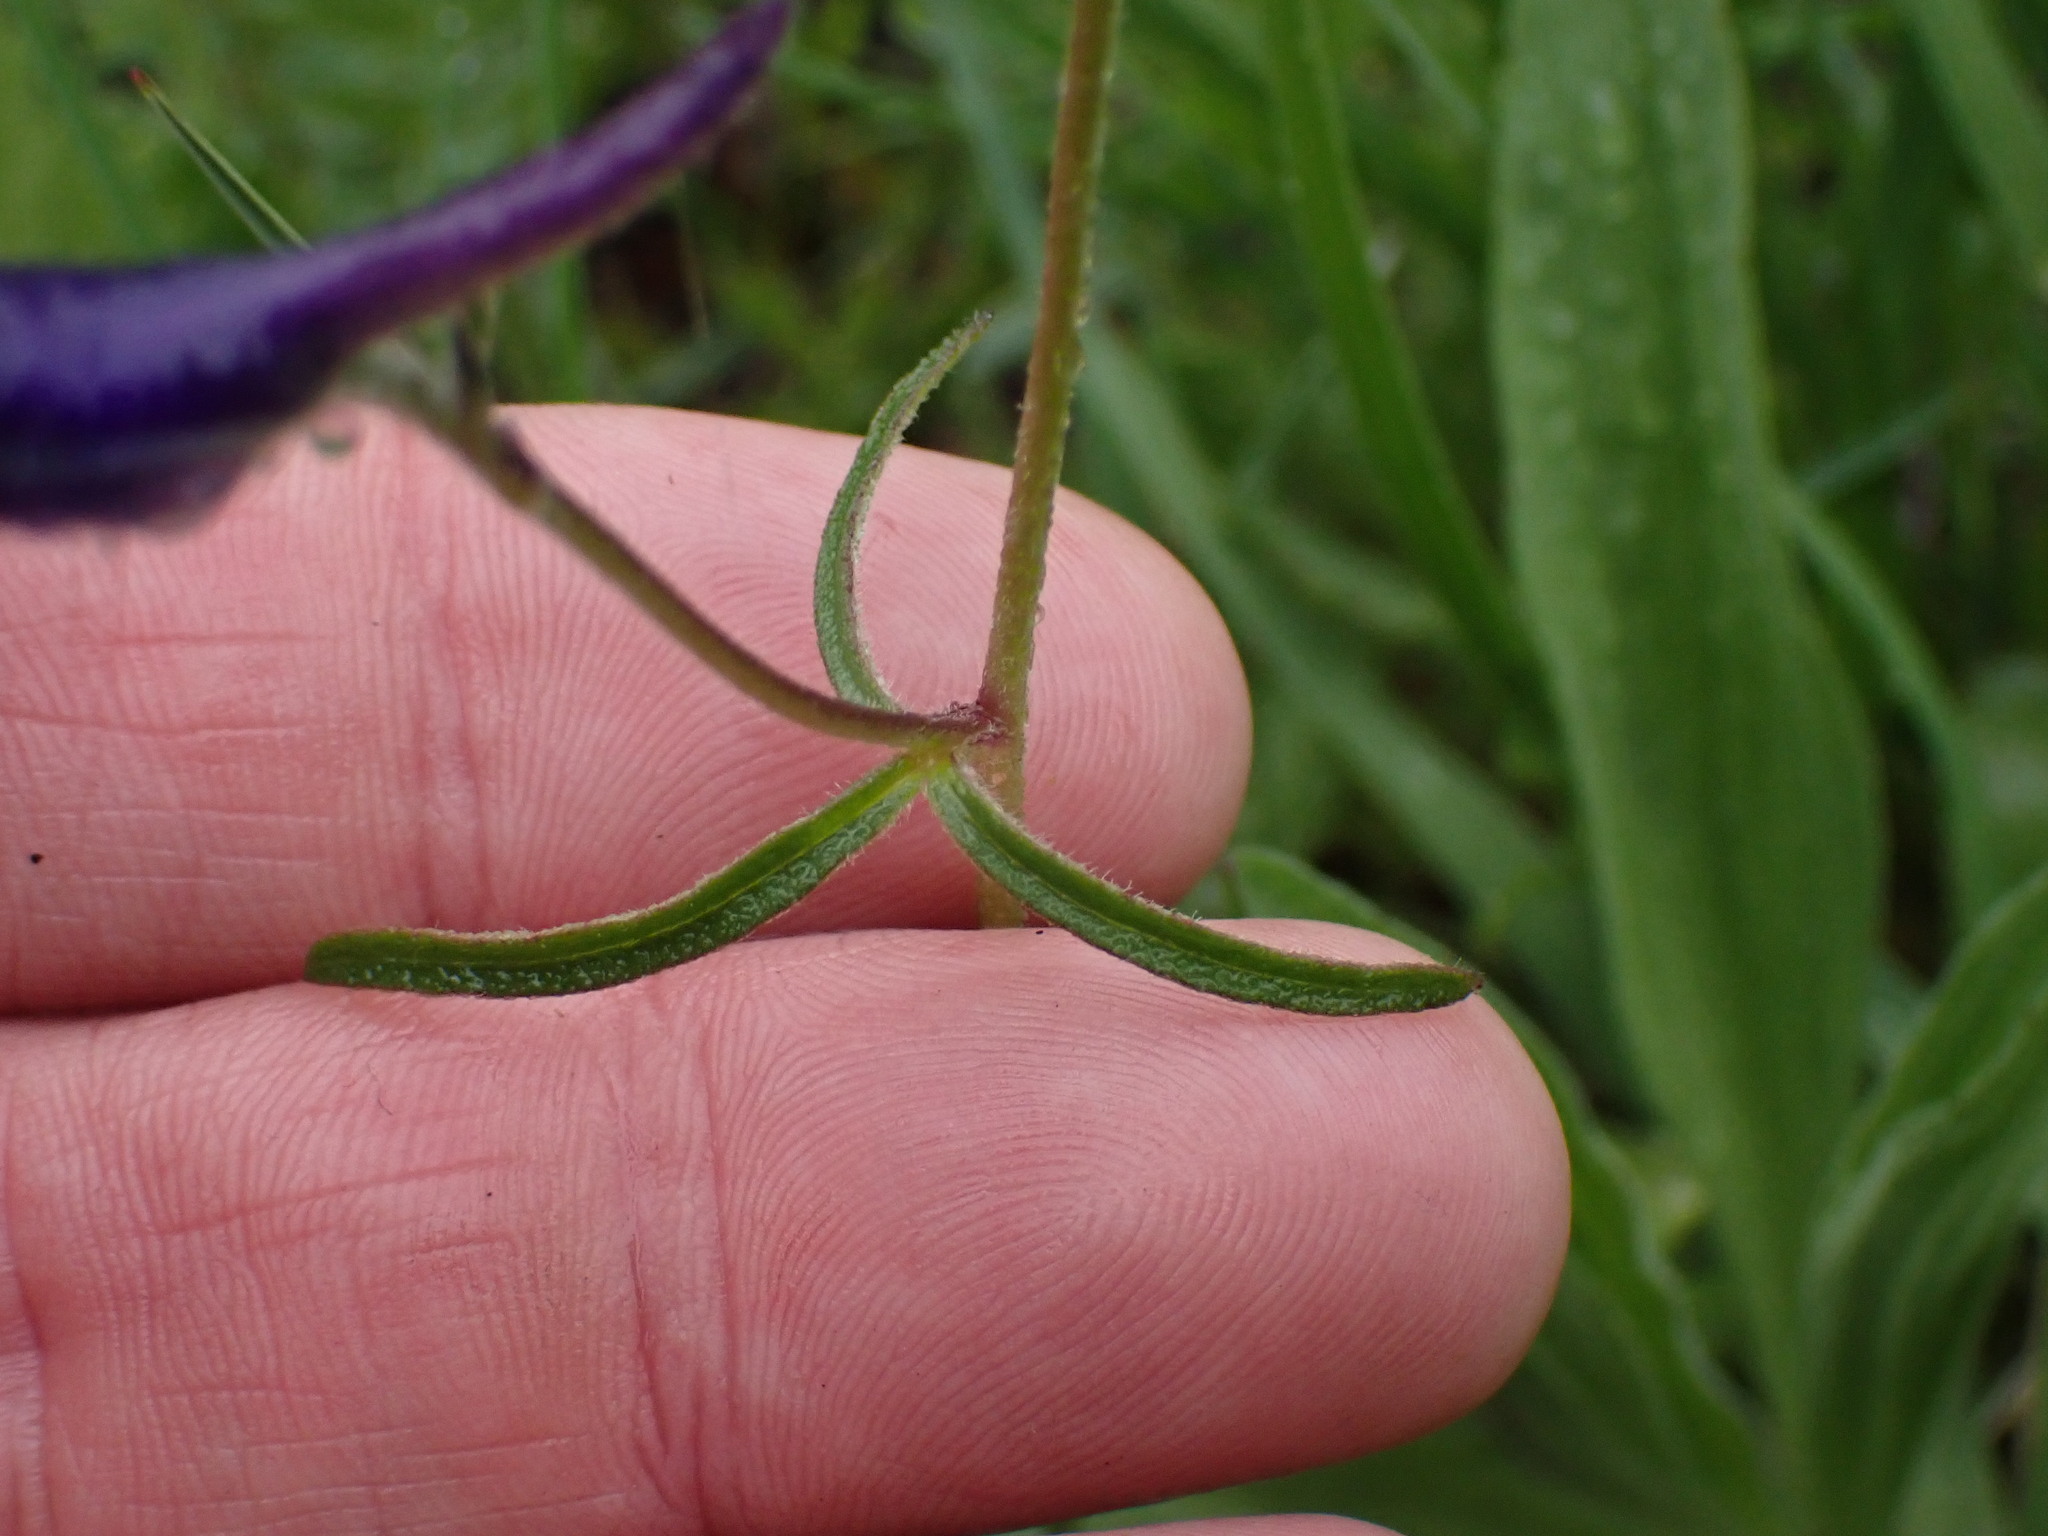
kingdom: Plantae
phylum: Tracheophyta
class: Magnoliopsida
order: Ranunculales
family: Ranunculaceae
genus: Delphinium
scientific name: Delphinium nuttallianum
